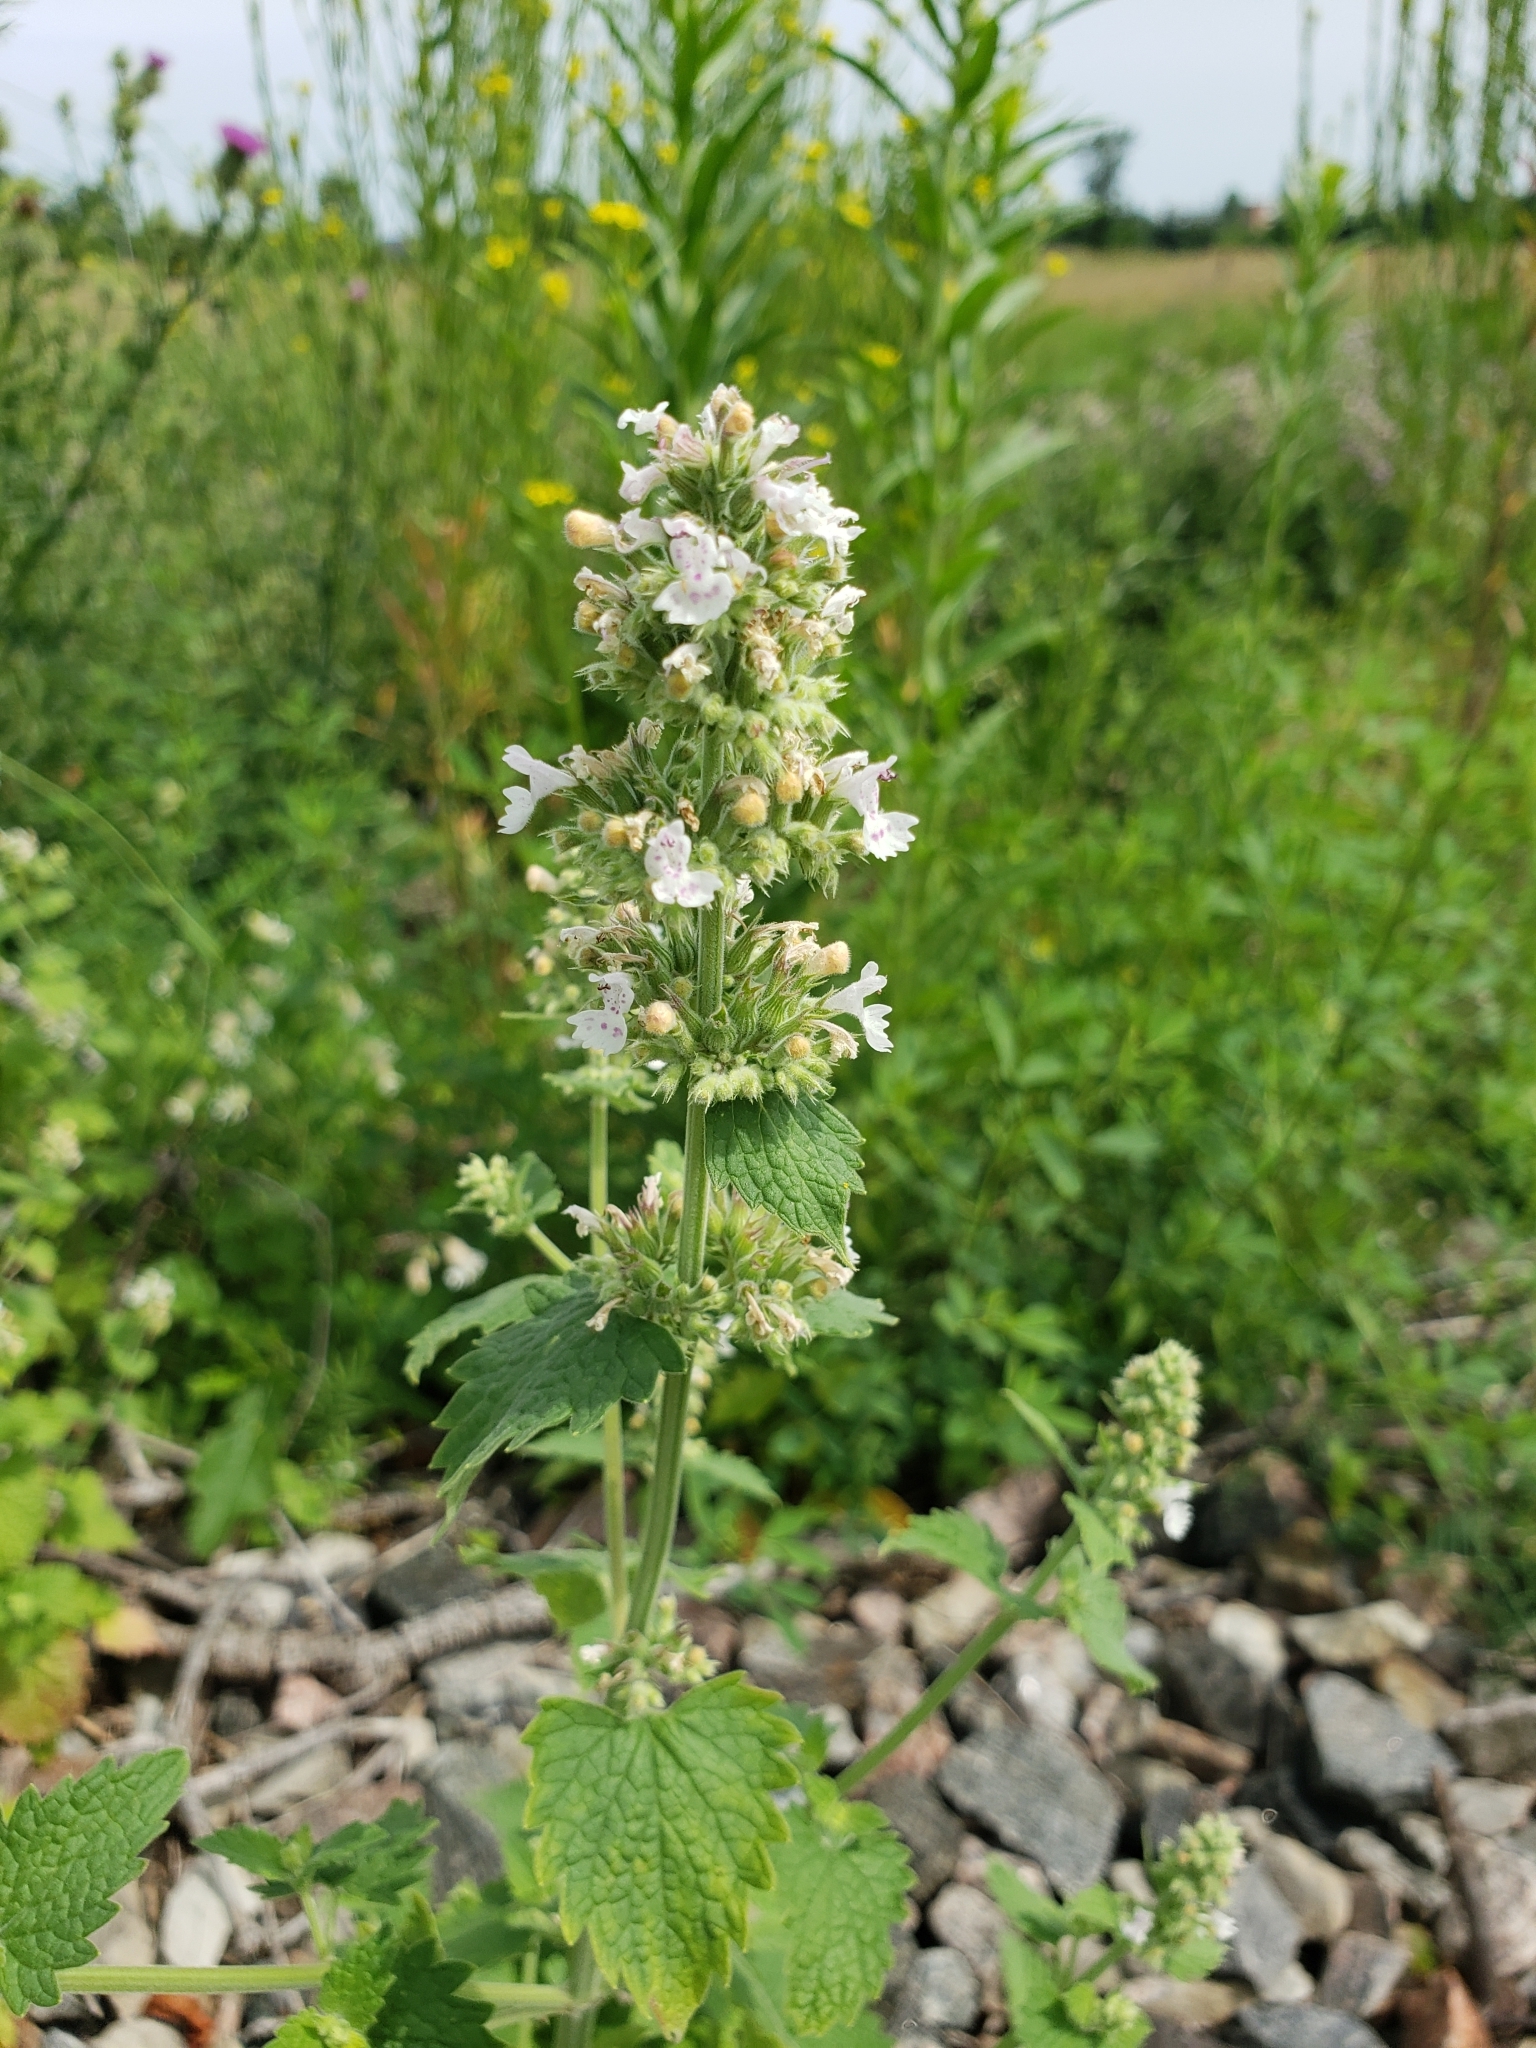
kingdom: Plantae
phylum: Tracheophyta
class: Magnoliopsida
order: Lamiales
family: Lamiaceae
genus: Nepeta
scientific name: Nepeta cataria
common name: Catnip
